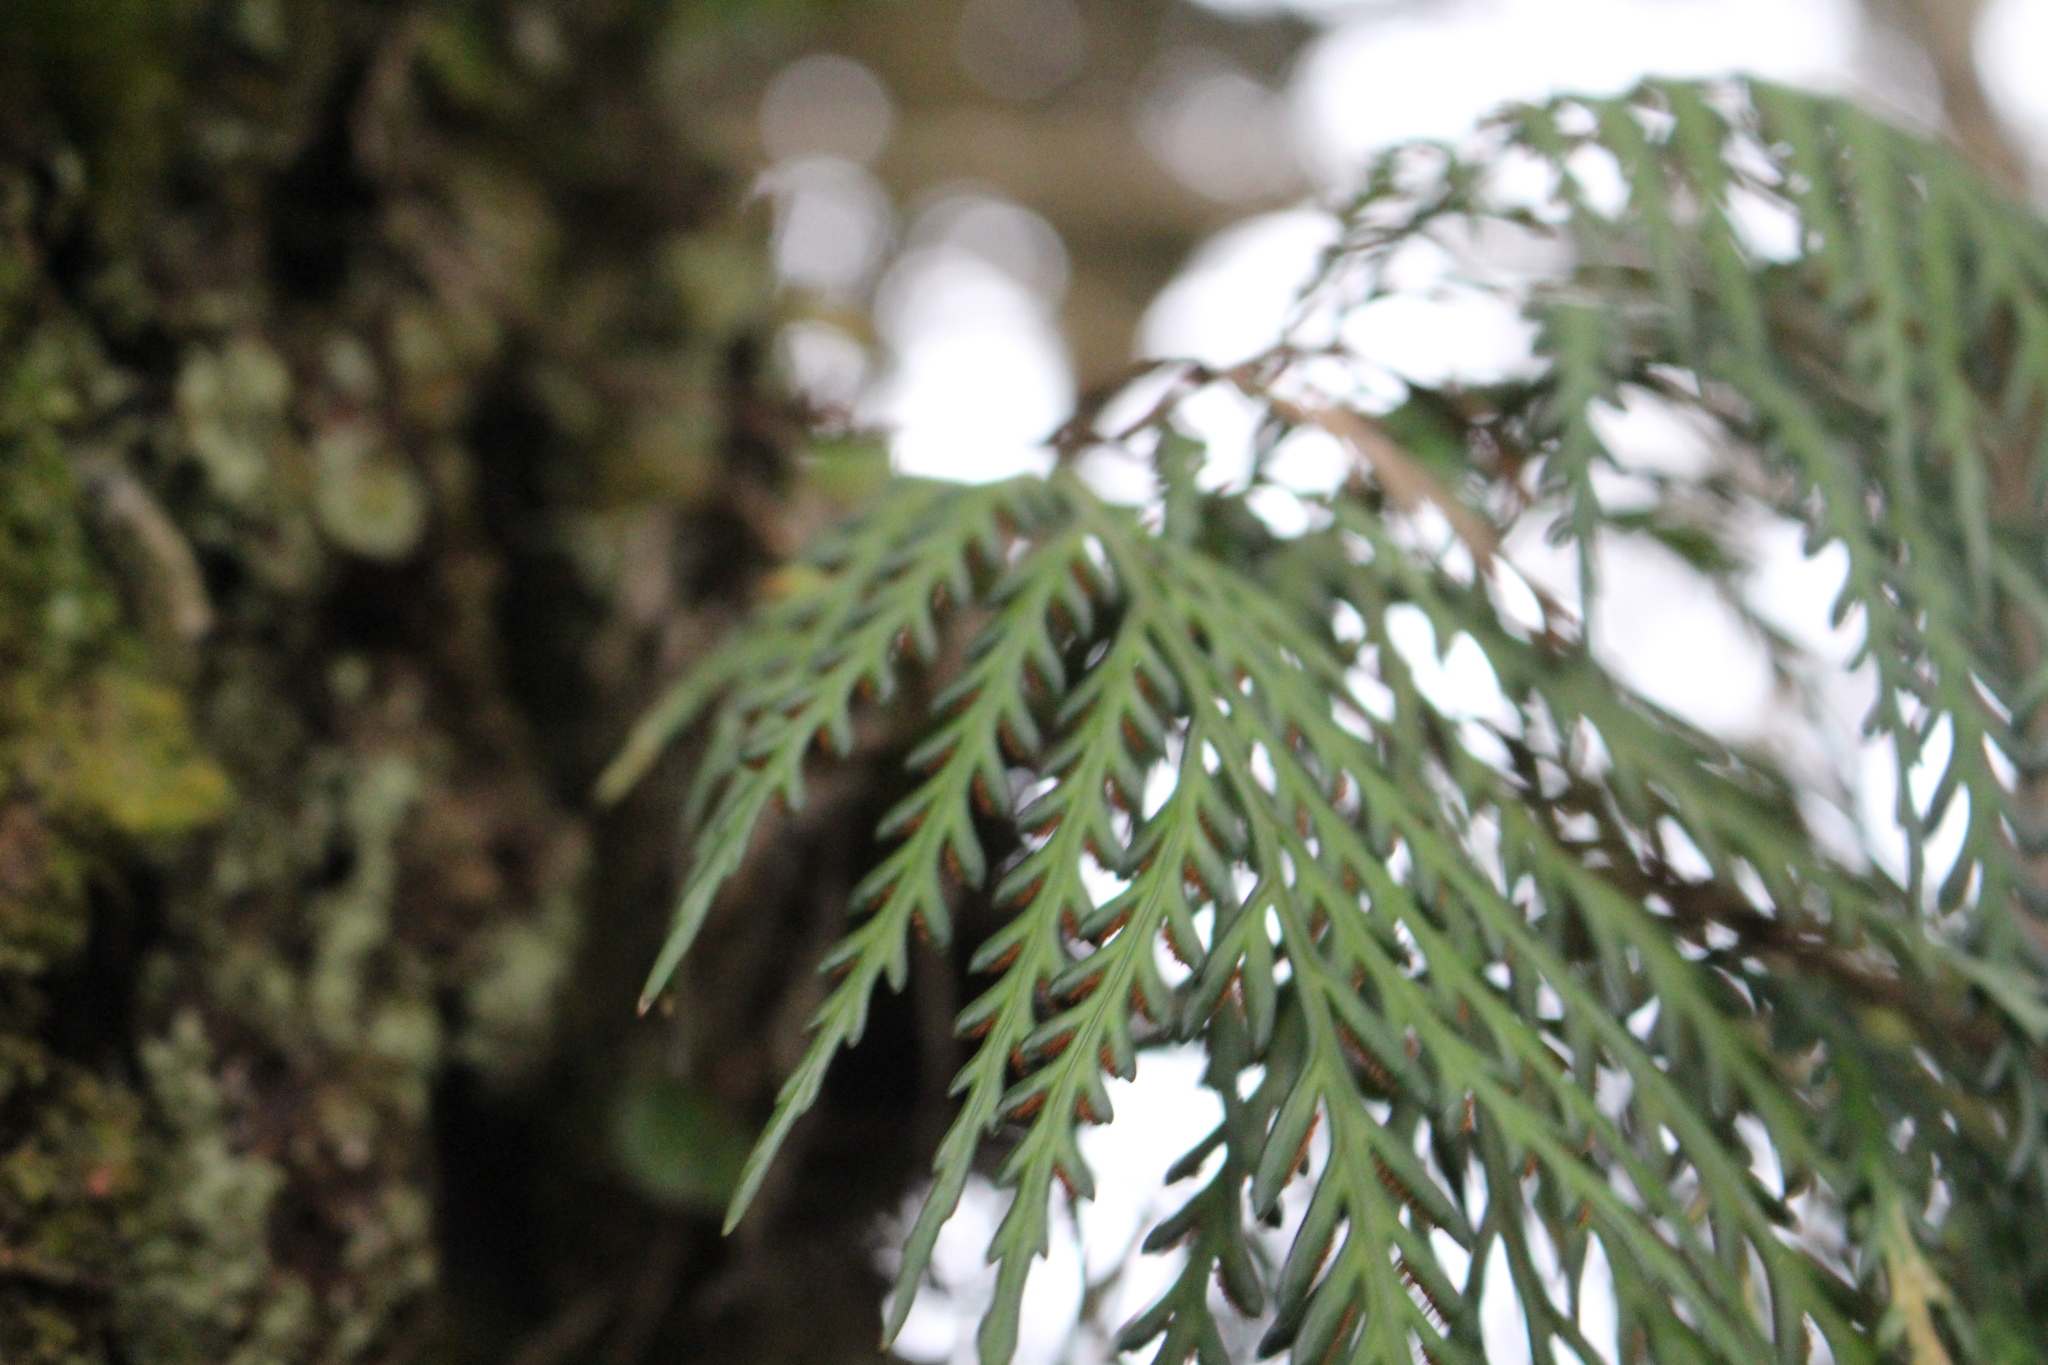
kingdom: Plantae
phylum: Tracheophyta
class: Polypodiopsida
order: Polypodiales
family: Aspleniaceae
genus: Asplenium
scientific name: Asplenium flaccidum
